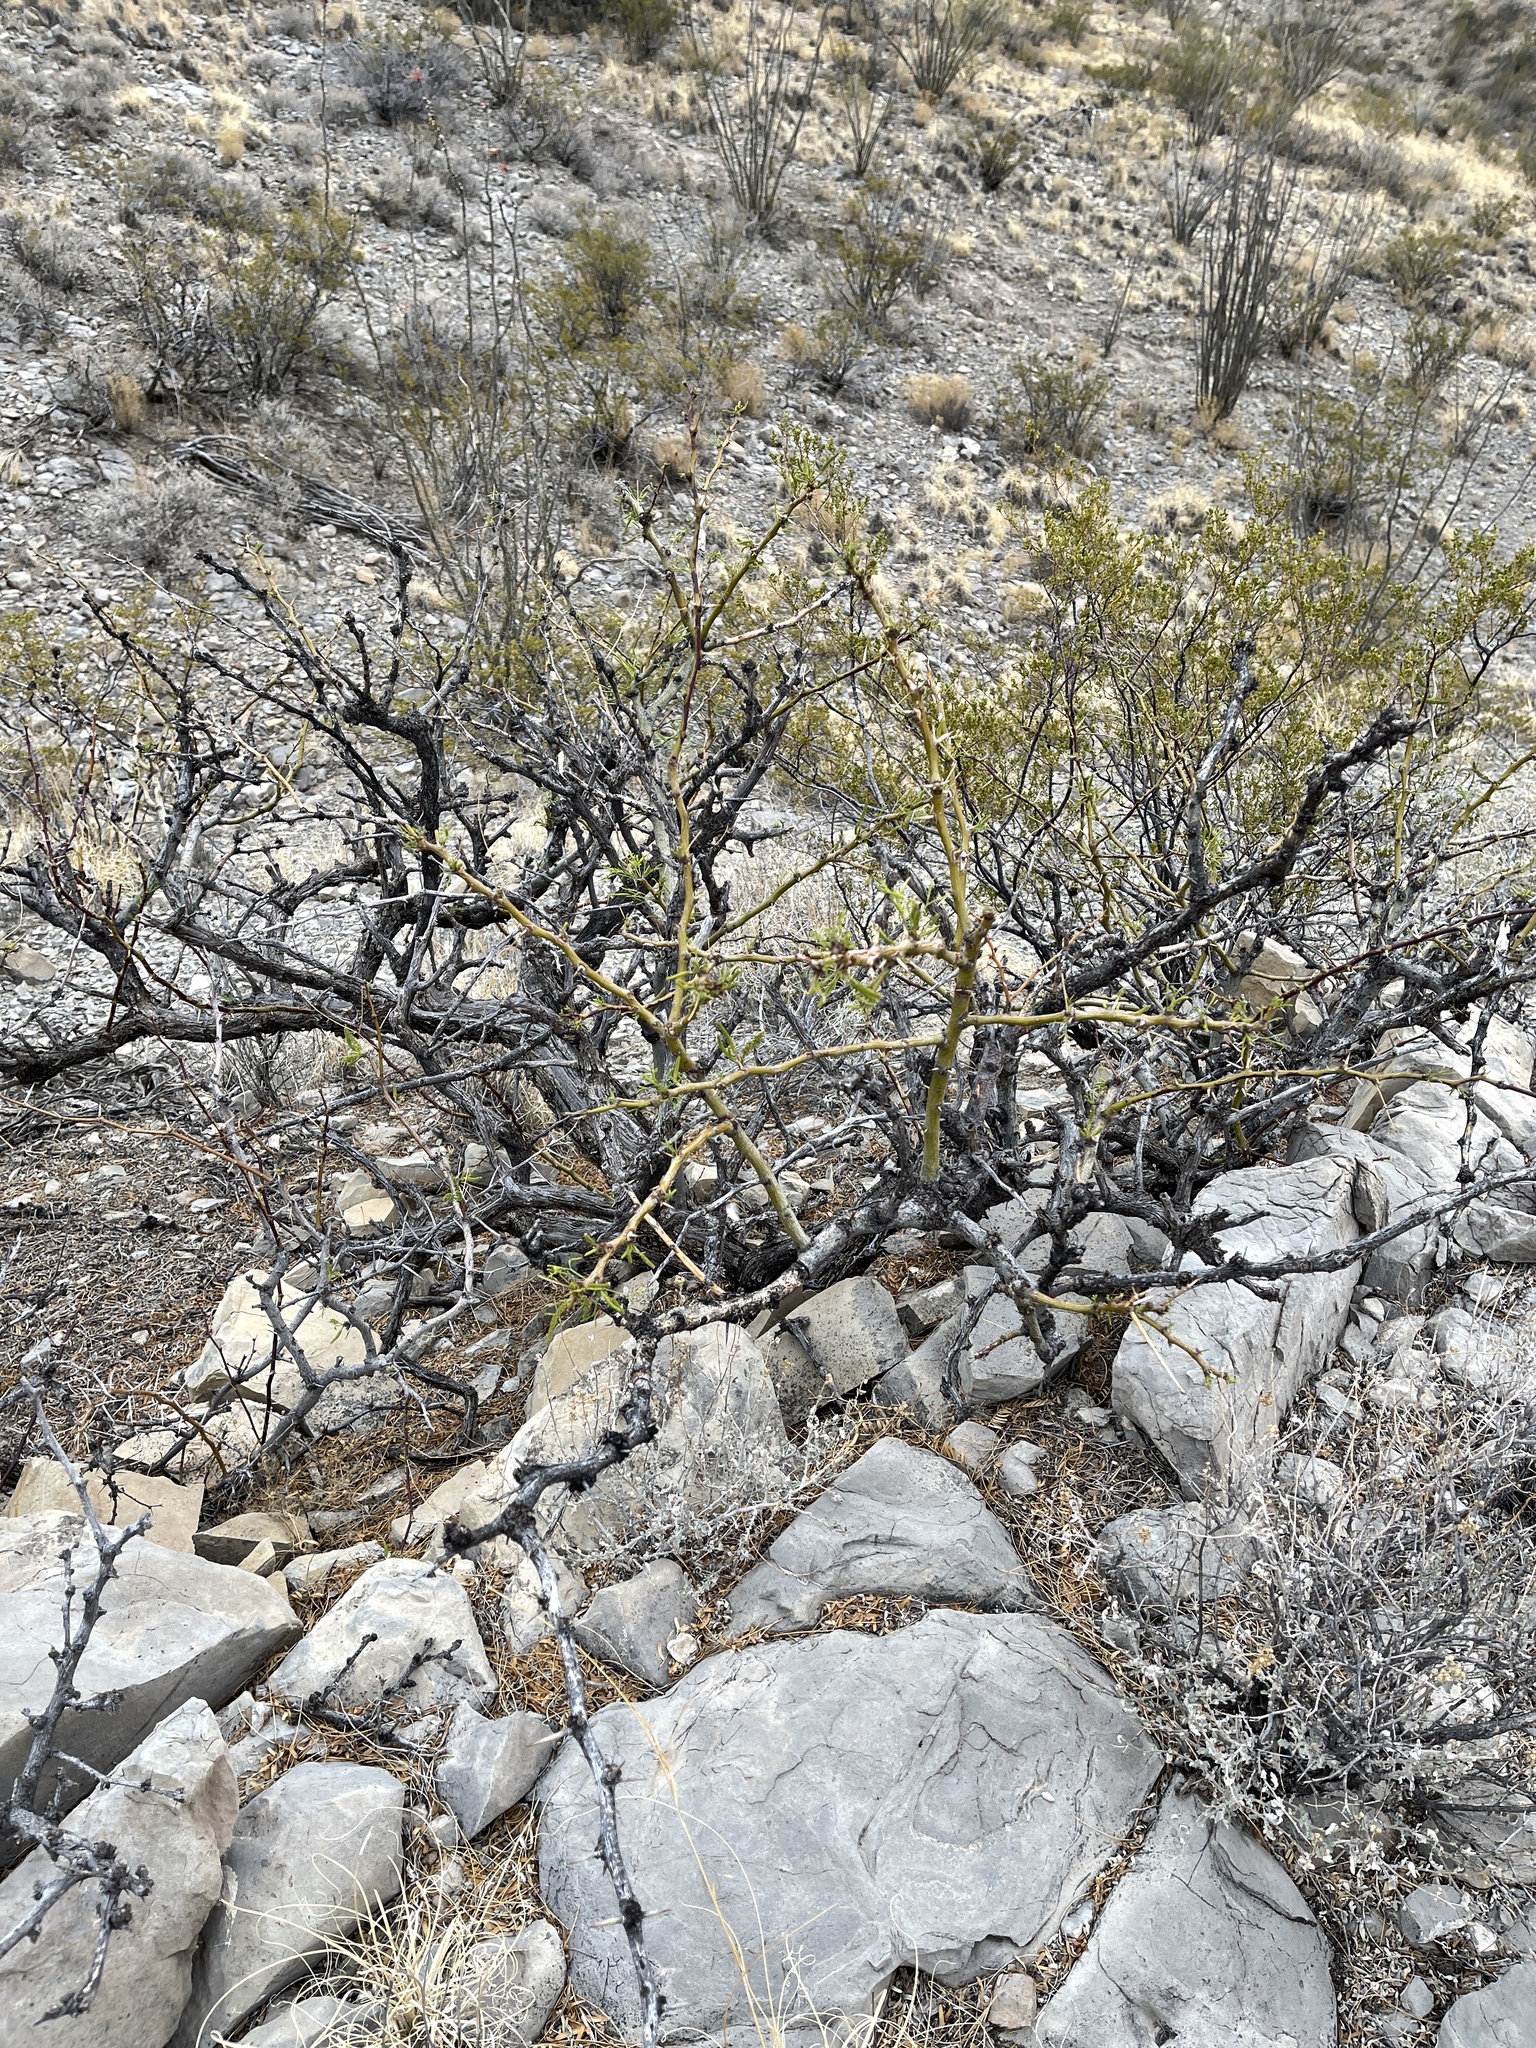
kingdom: Plantae
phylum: Tracheophyta
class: Magnoliopsida
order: Fabales
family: Fabaceae
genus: Prosopis
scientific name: Prosopis glandulosa
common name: Honey mesquite
